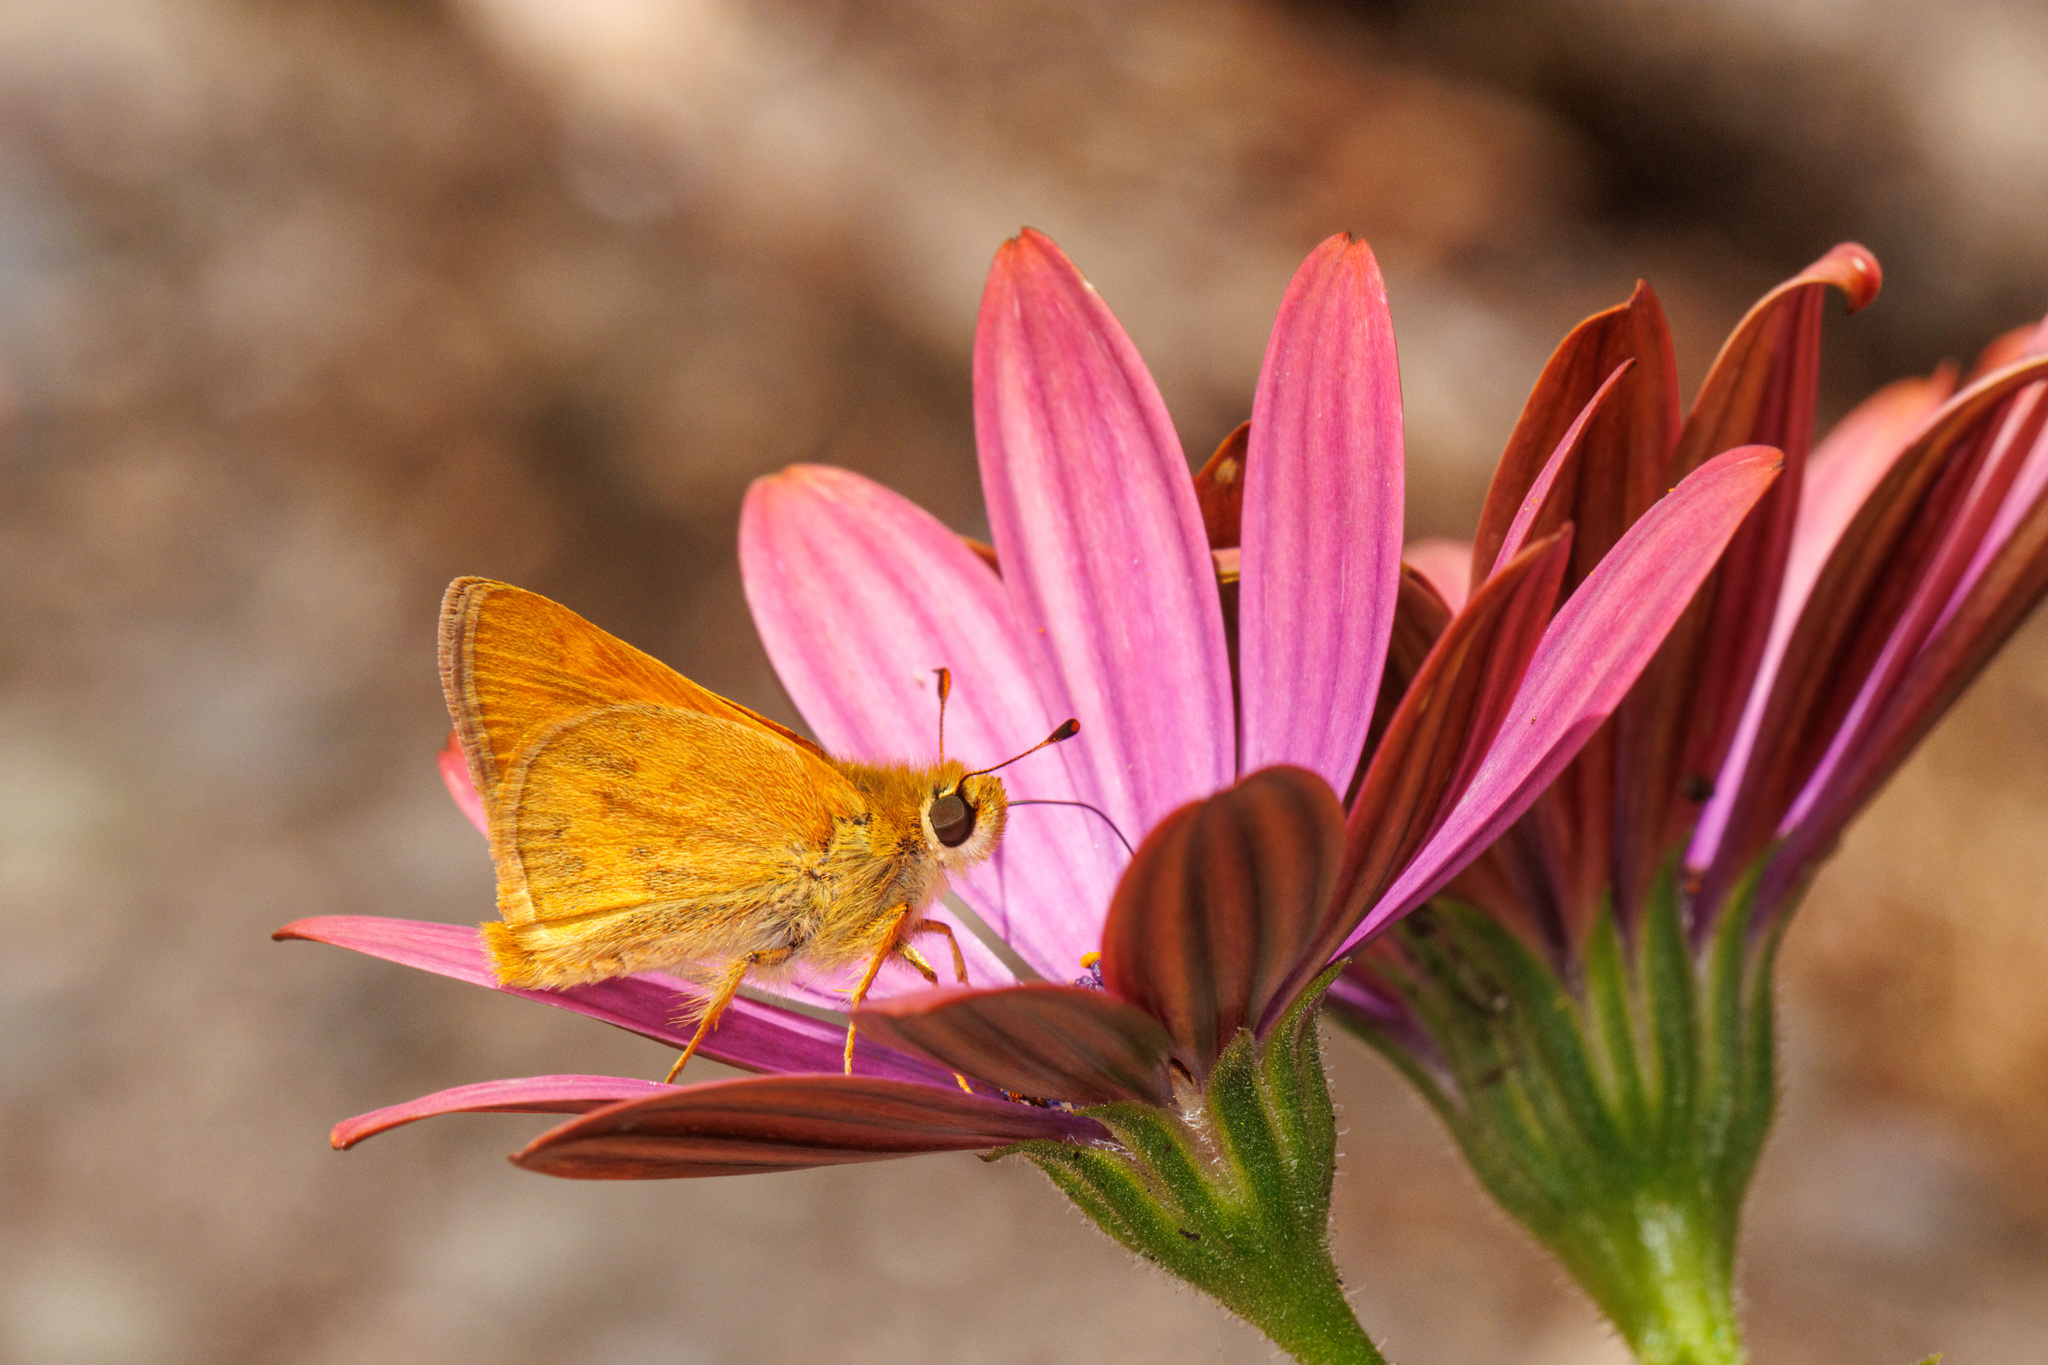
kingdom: Animalia
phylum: Arthropoda
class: Insecta
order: Lepidoptera
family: Hesperiidae
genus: Ochlodes
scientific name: Ochlodes sylvanoides
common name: Woodland skipper
